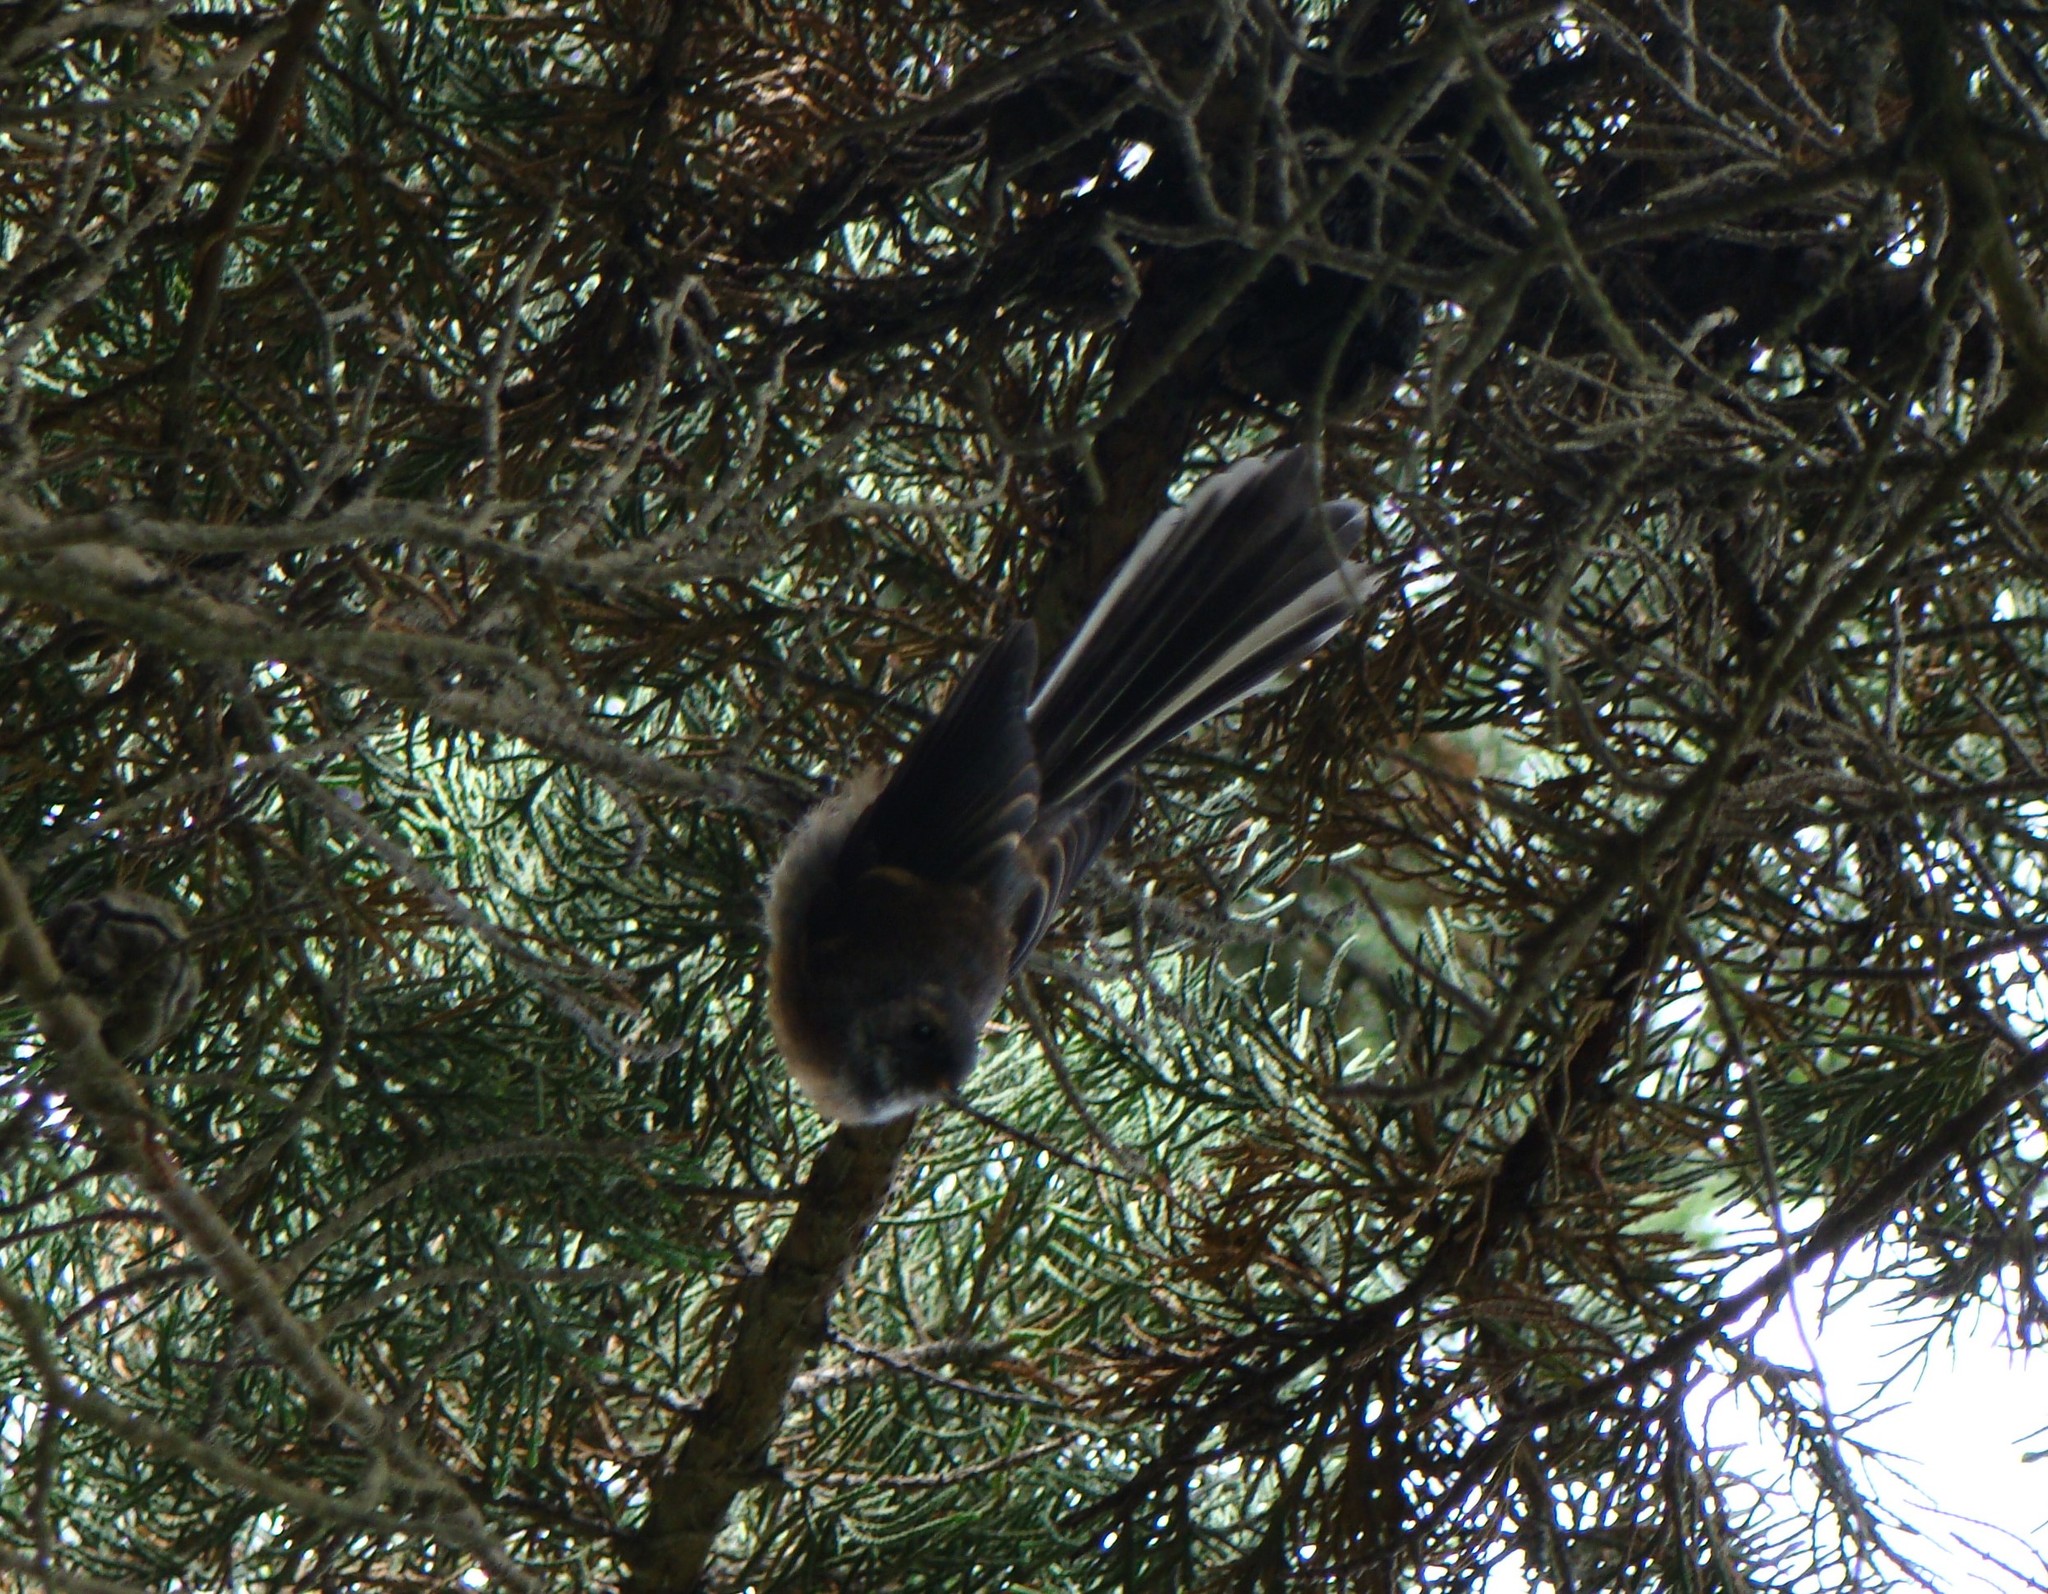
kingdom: Animalia
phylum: Chordata
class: Aves
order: Passeriformes
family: Rhipiduridae
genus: Rhipidura
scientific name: Rhipidura fuliginosa
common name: New zealand fantail
